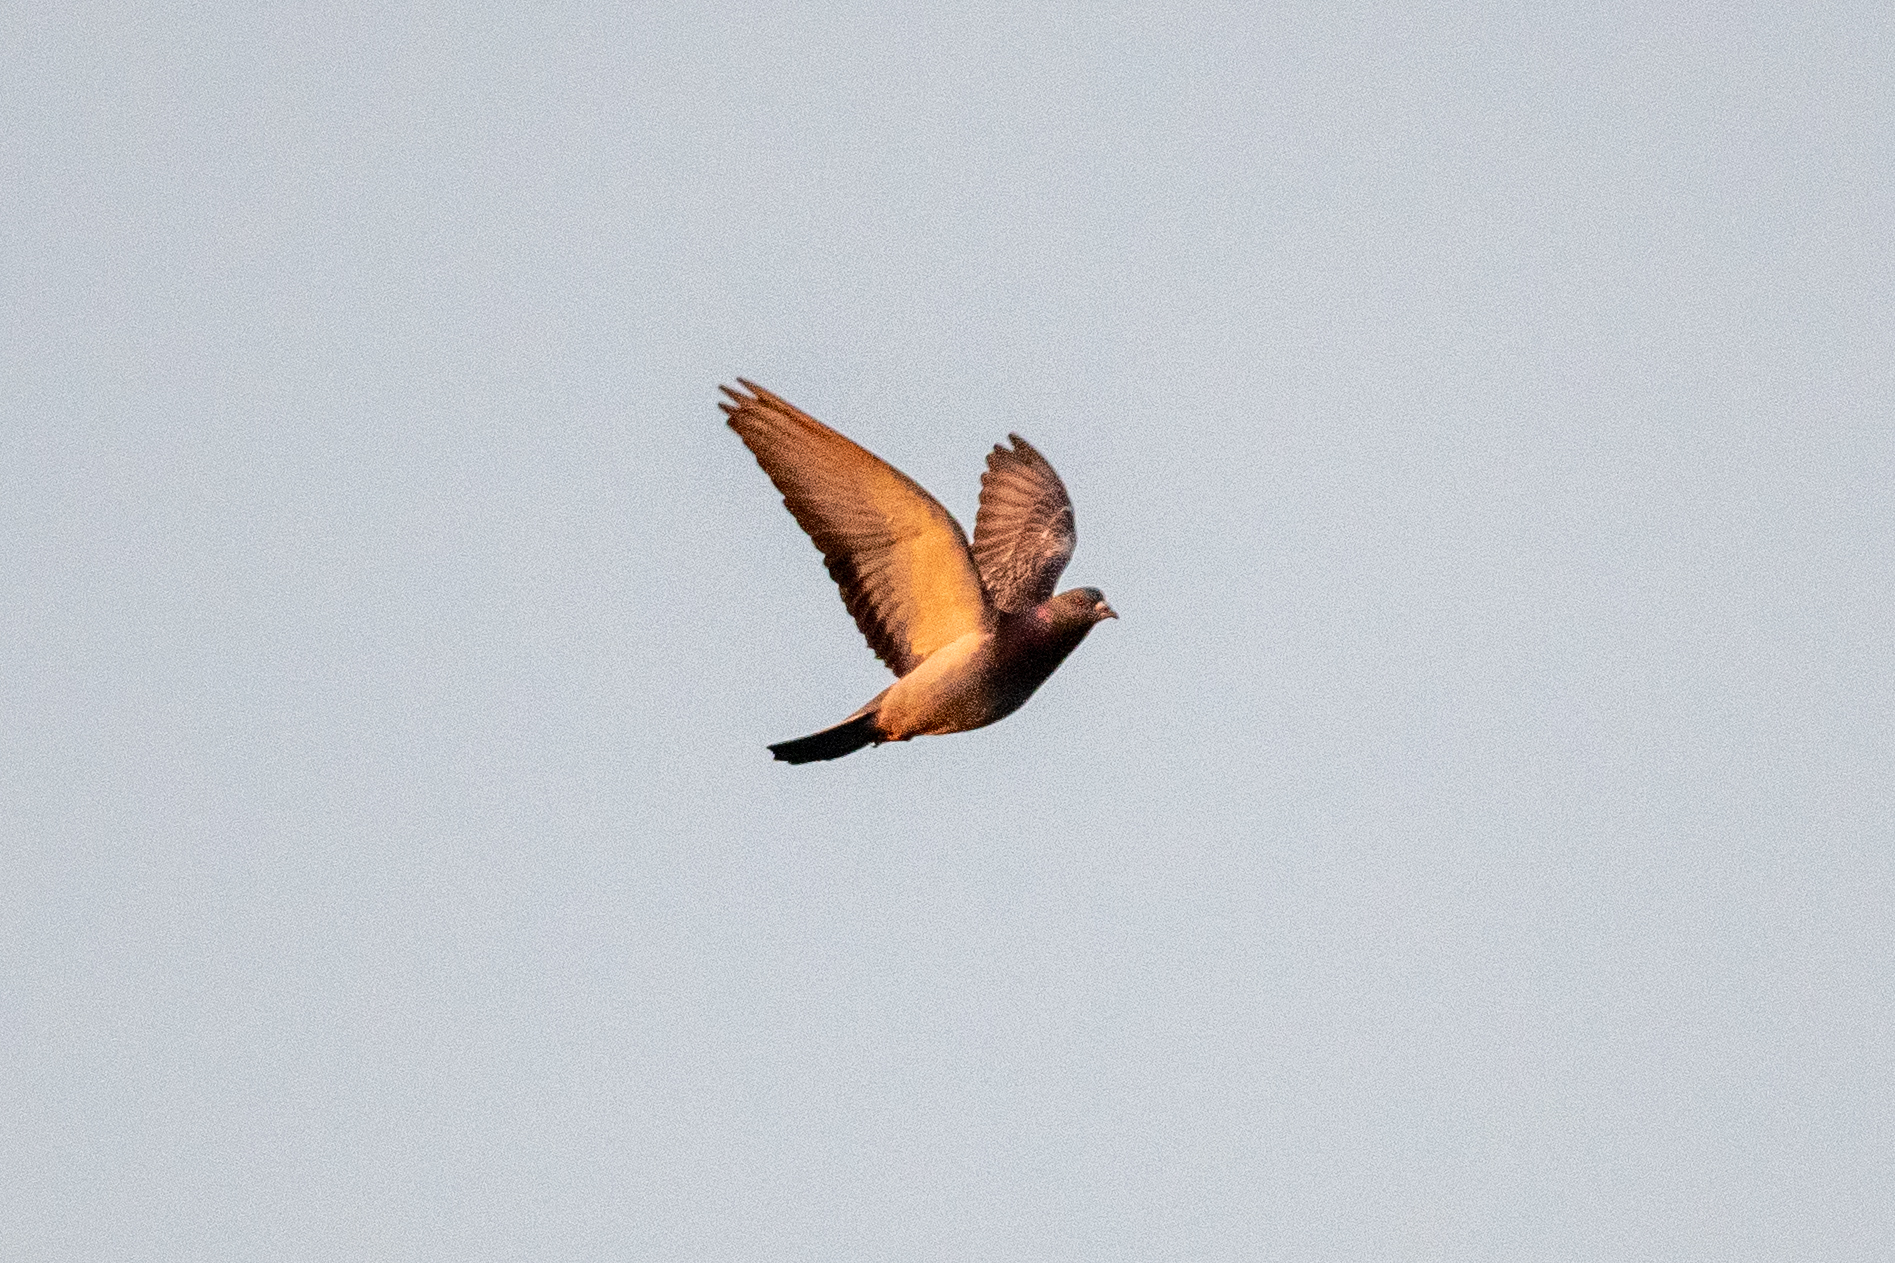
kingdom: Animalia
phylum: Chordata
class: Aves
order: Columbiformes
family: Columbidae
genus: Columba
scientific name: Columba livia
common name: Rock pigeon
